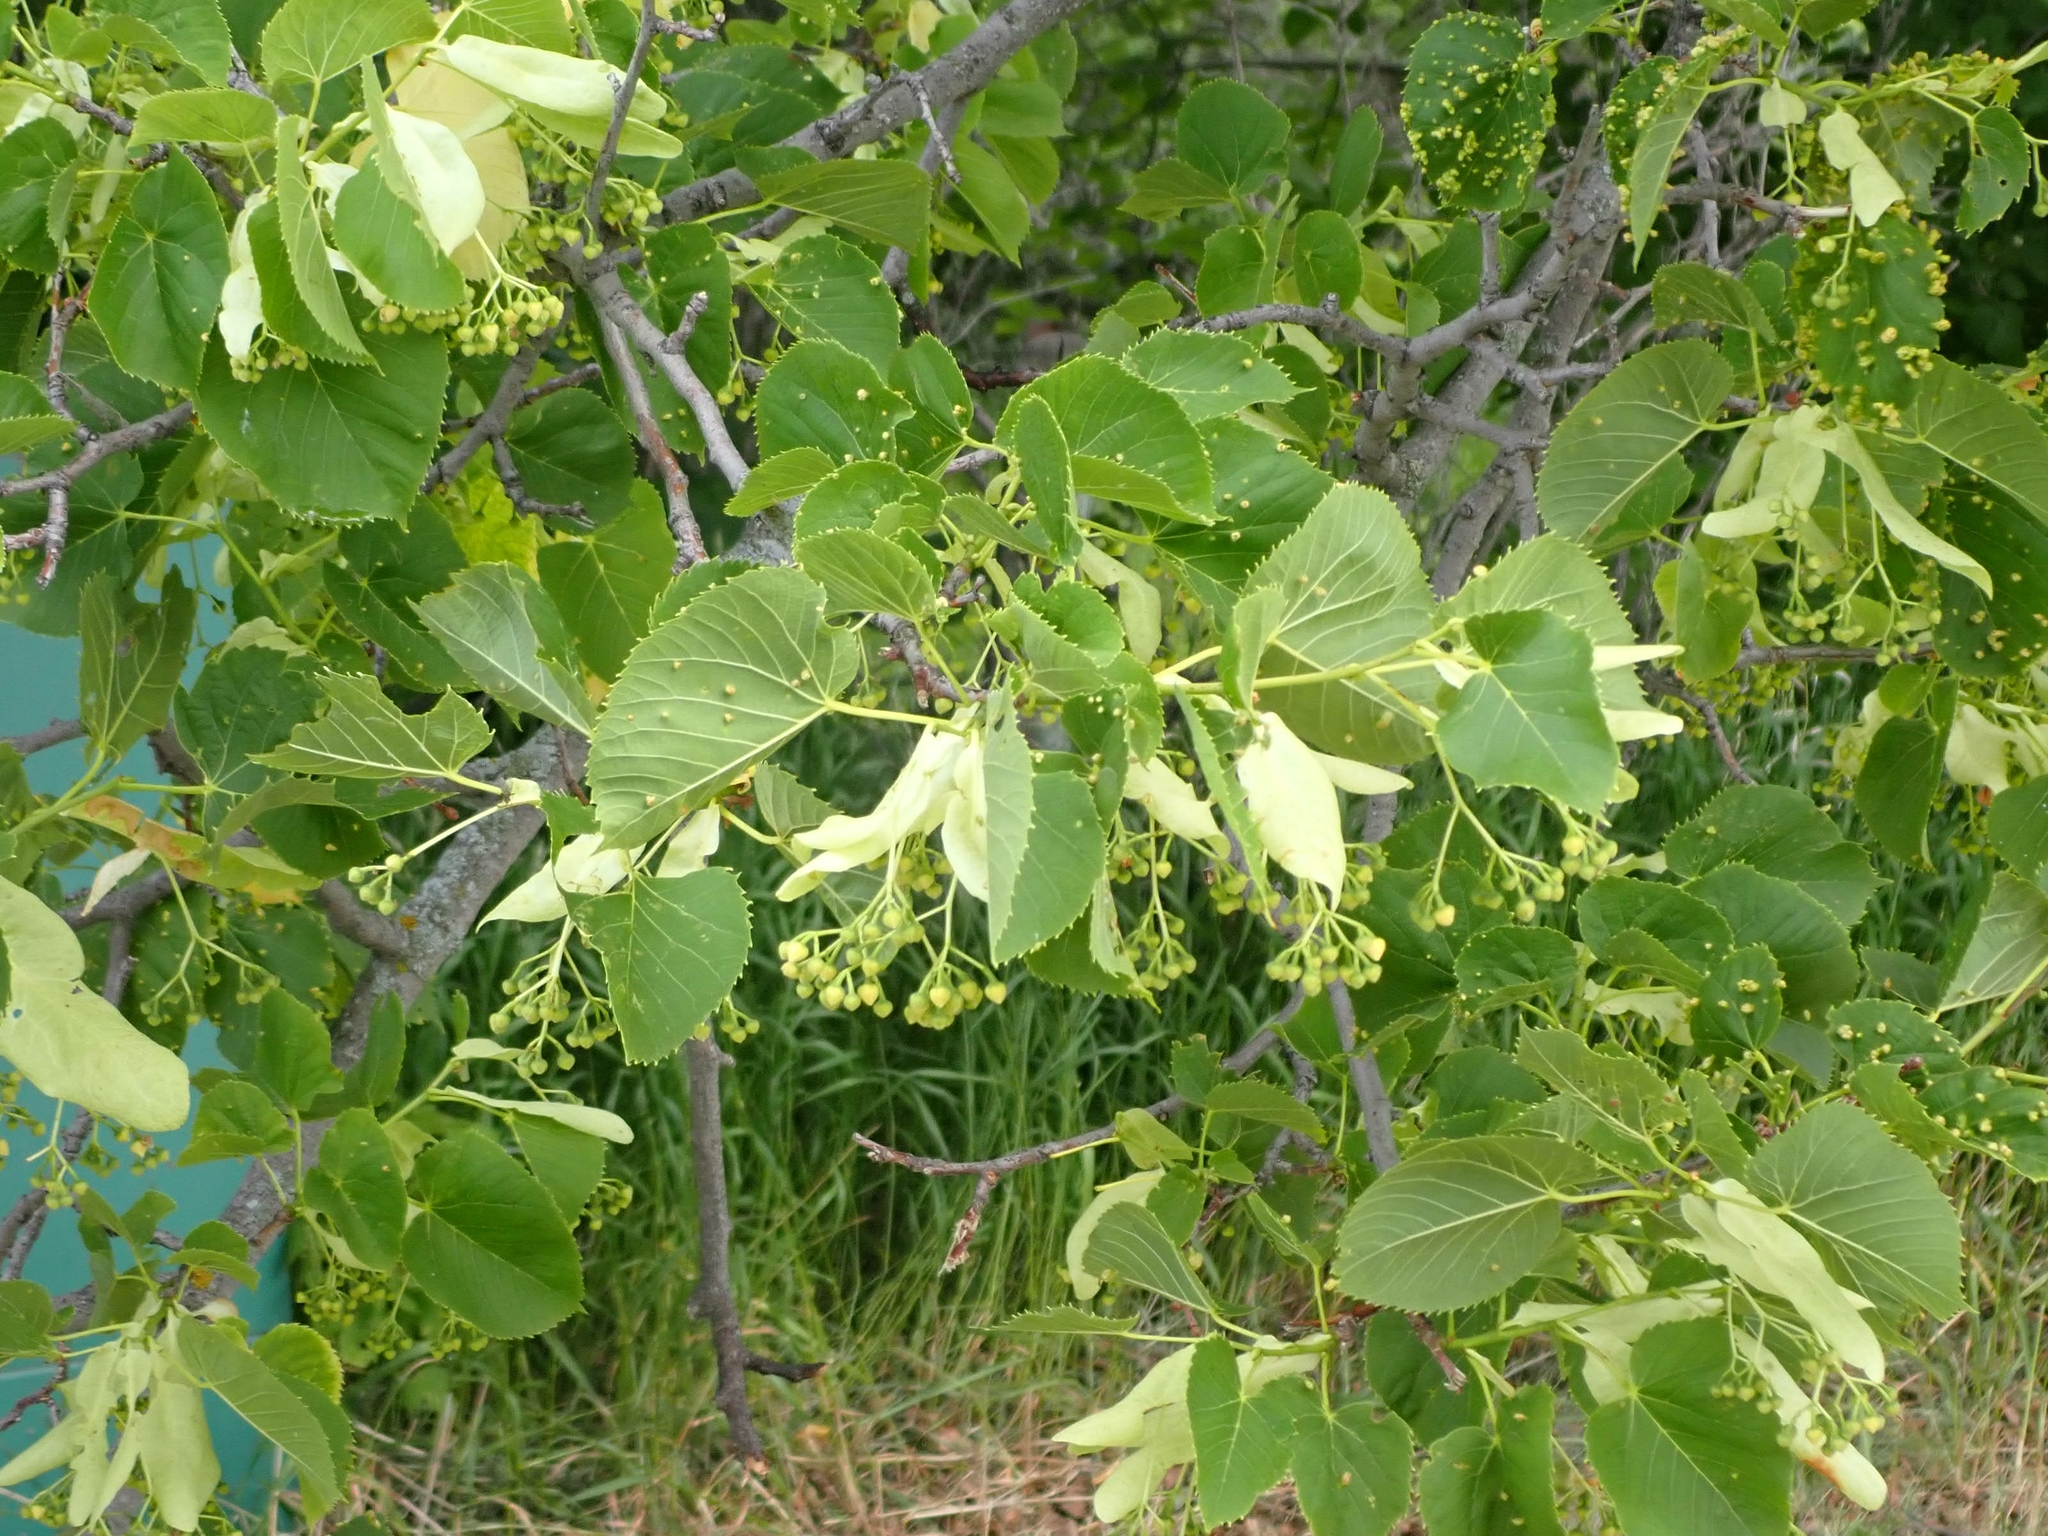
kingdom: Plantae
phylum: Tracheophyta
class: Magnoliopsida
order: Malvales
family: Malvaceae
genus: Tilia
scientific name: Tilia americana
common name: Basswood
